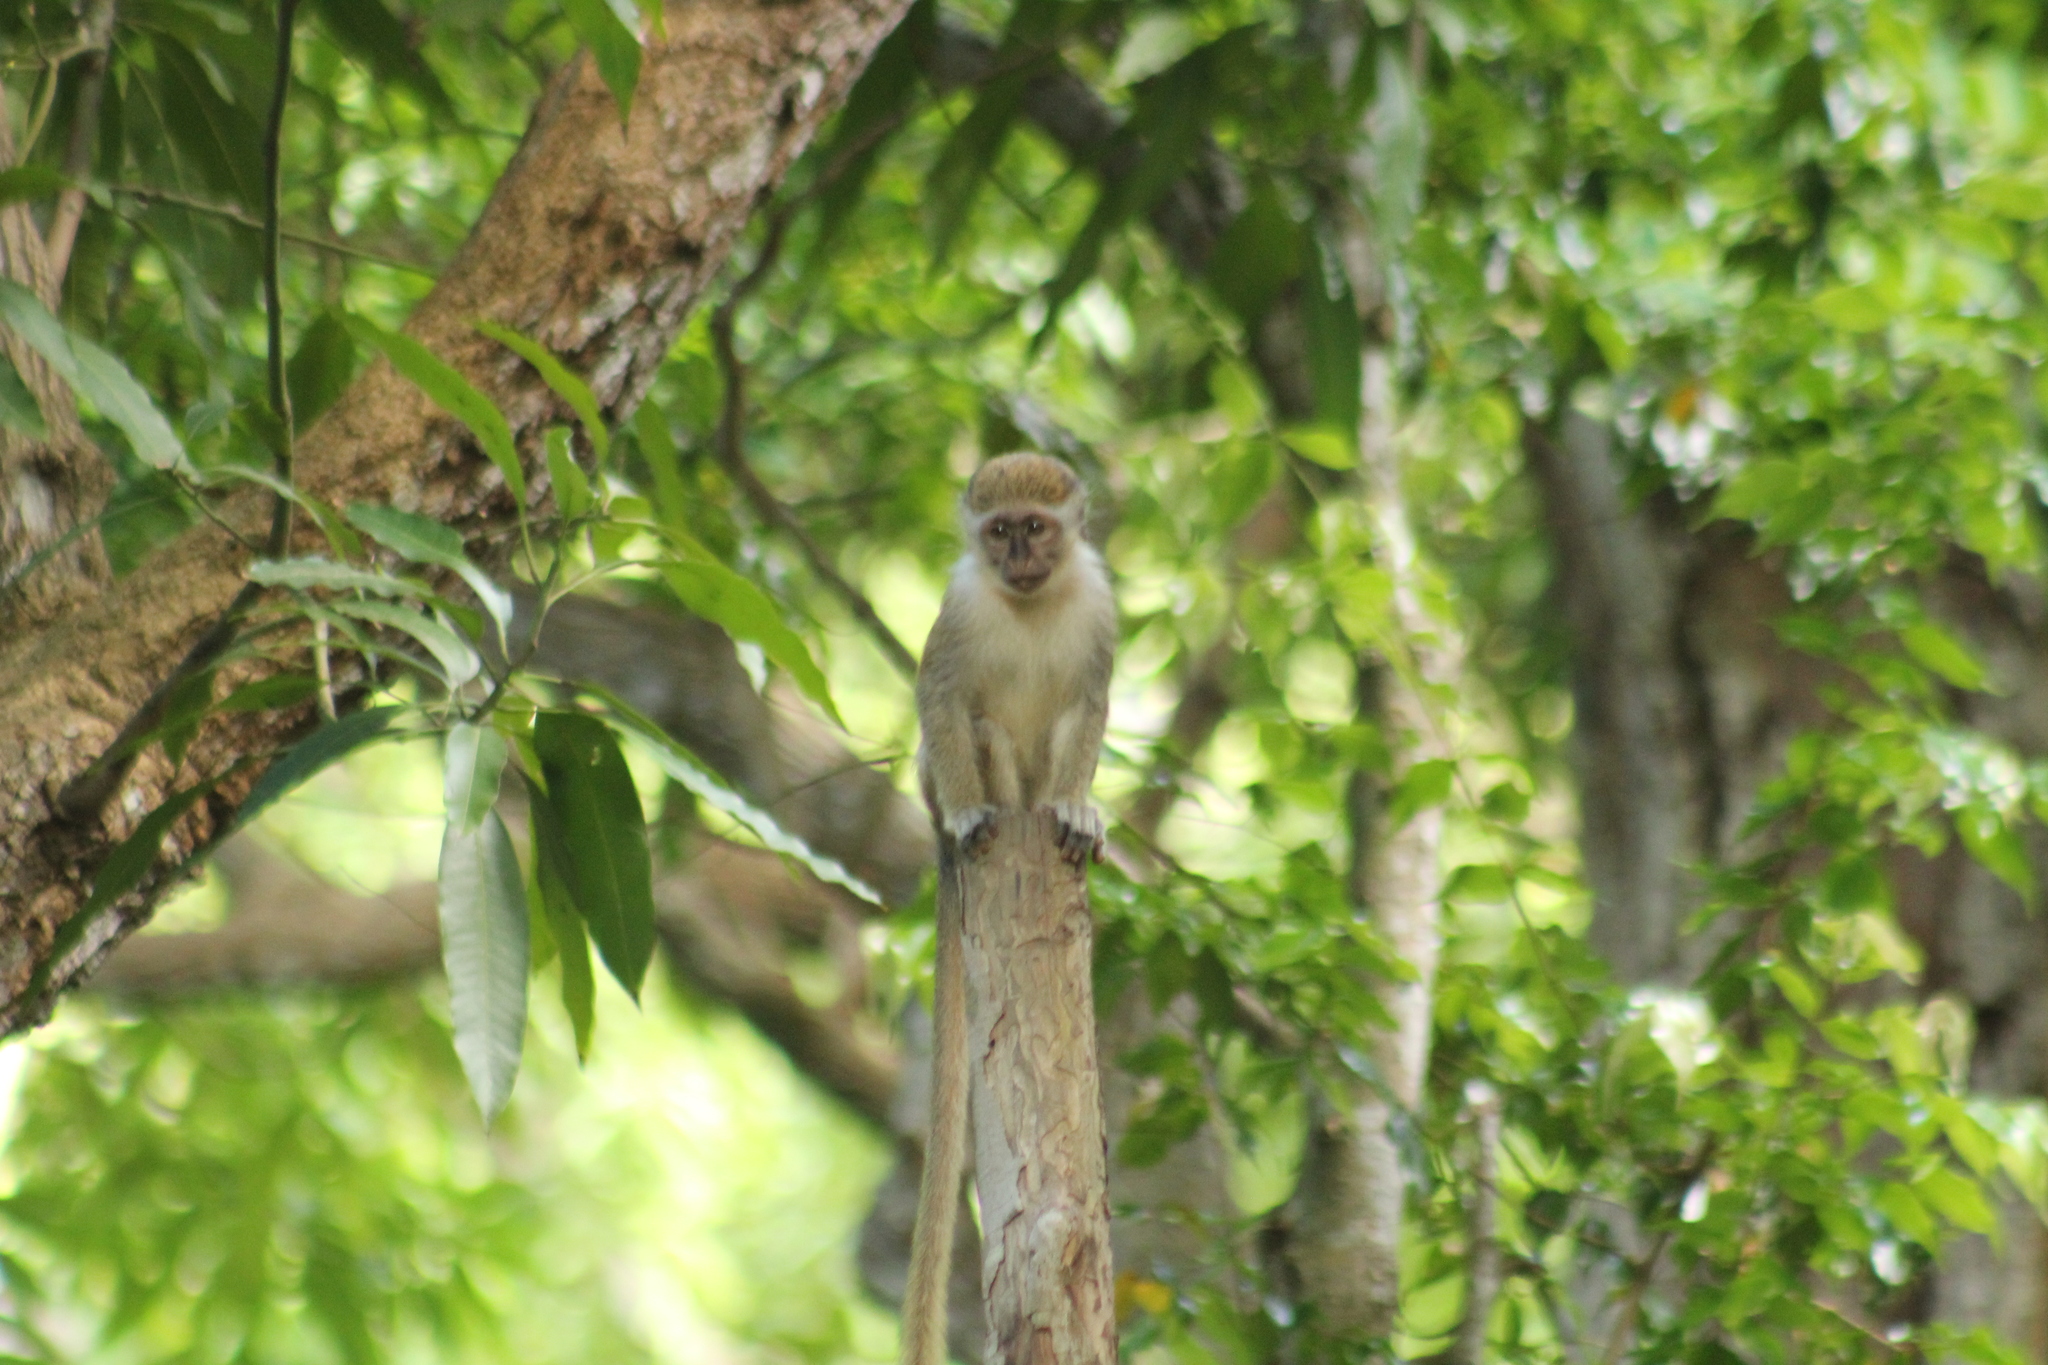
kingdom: Animalia
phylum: Chordata
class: Mammalia
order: Primates
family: Cercopithecidae
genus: Chlorocebus
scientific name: Chlorocebus sabaeus
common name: Green monkey
